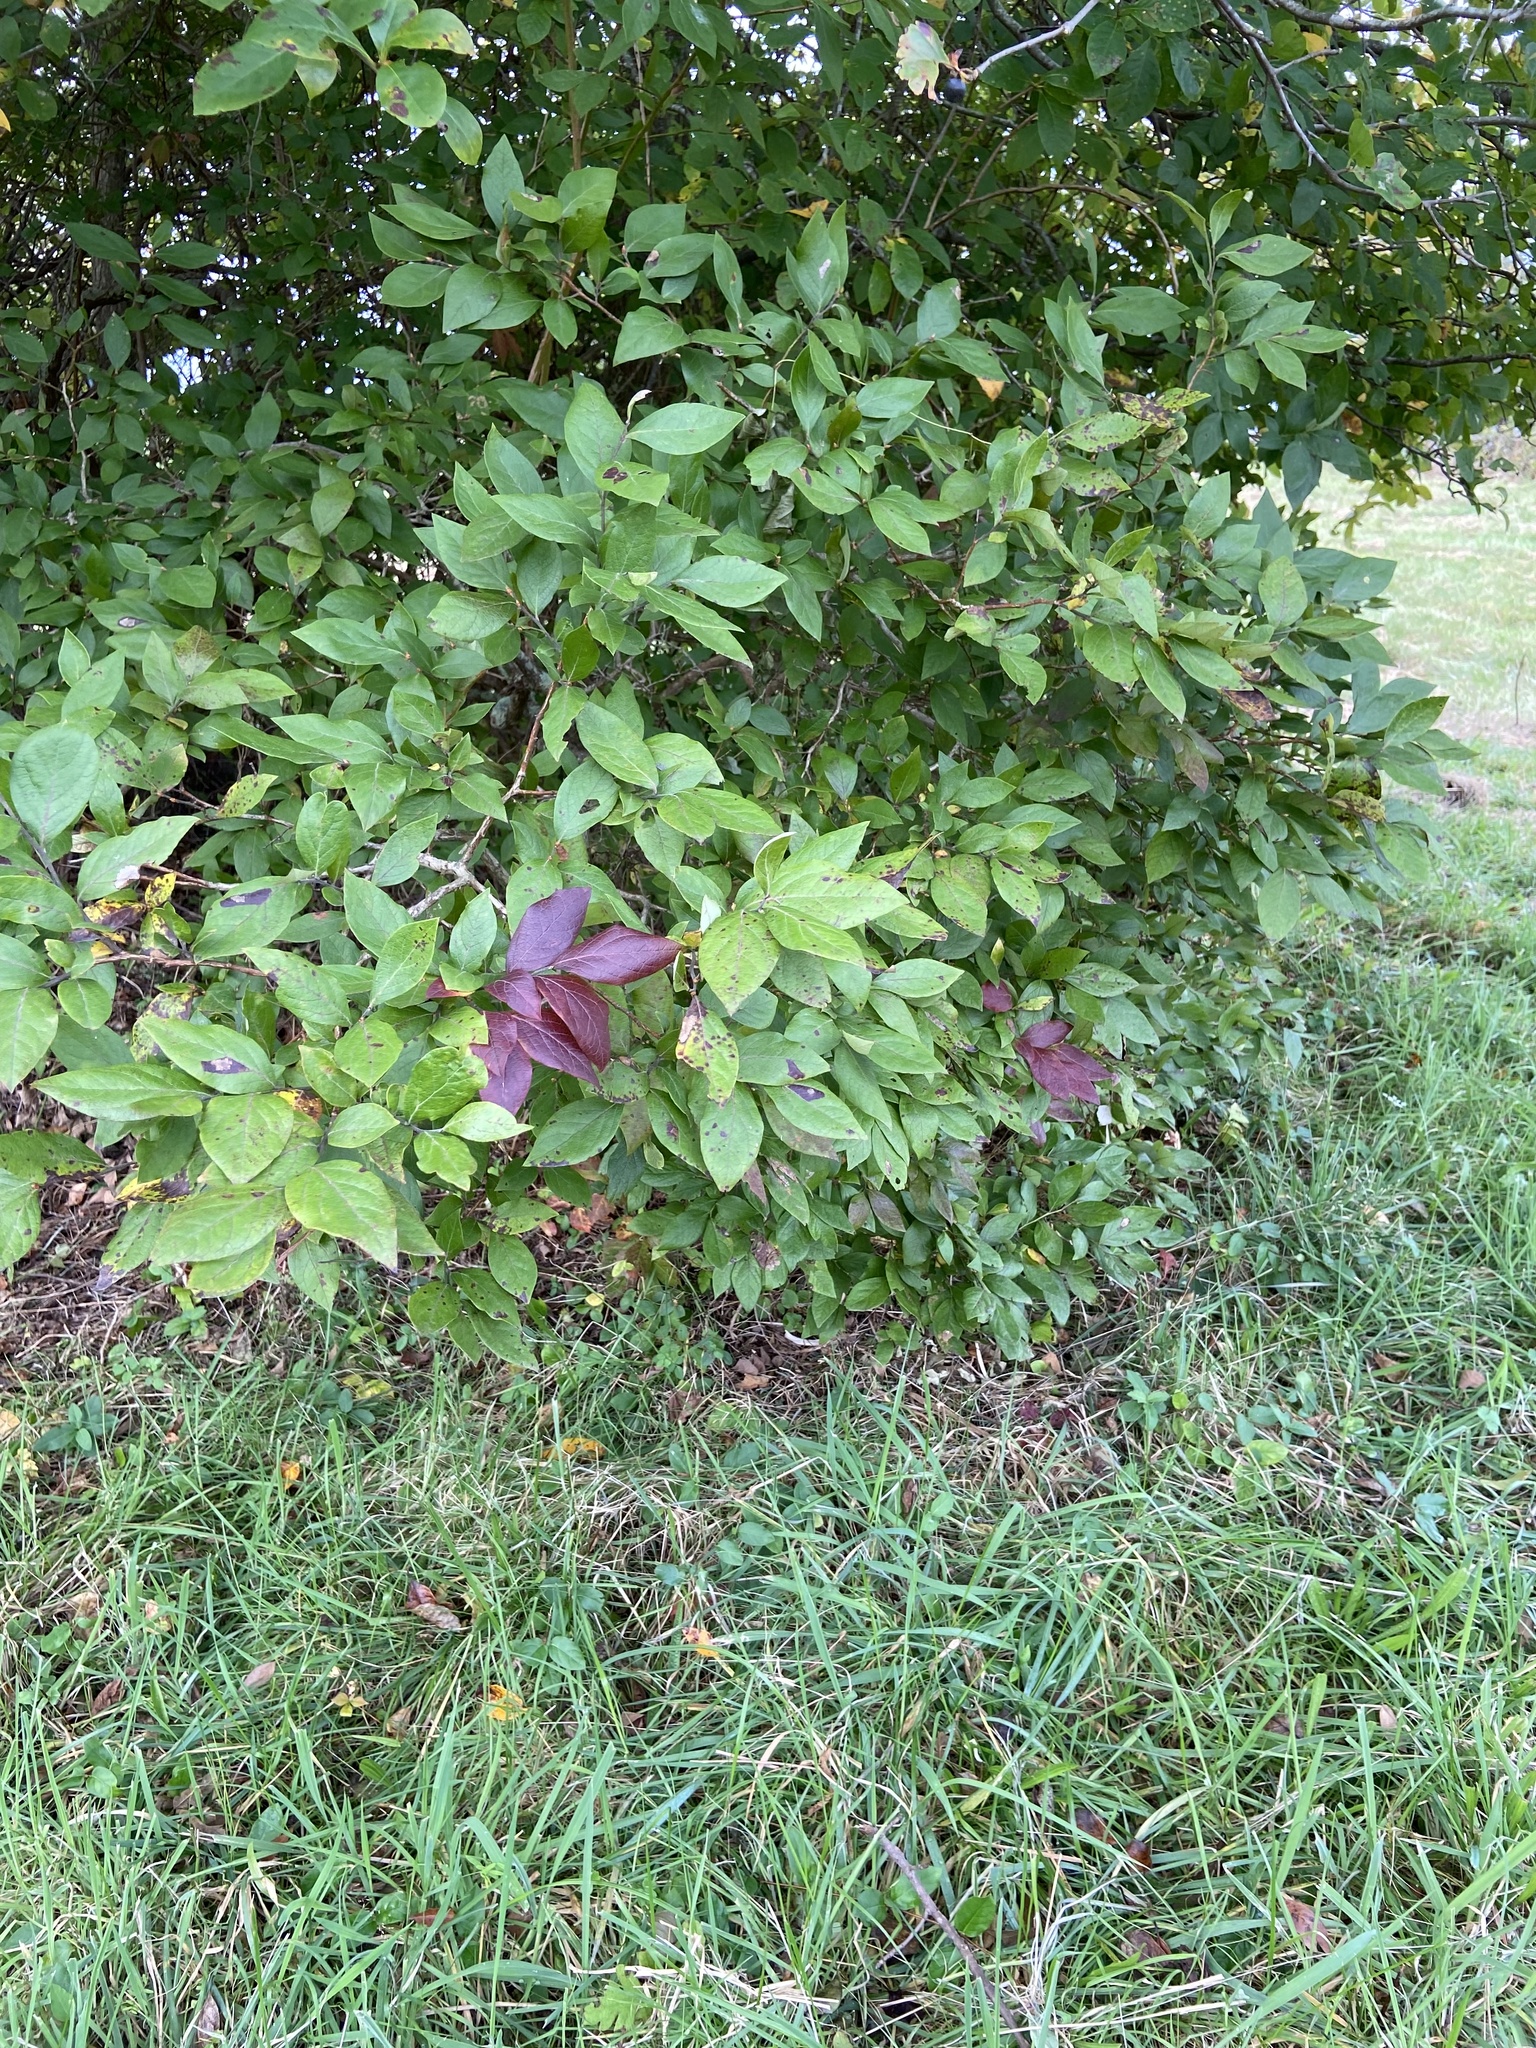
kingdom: Plantae
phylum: Tracheophyta
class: Magnoliopsida
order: Ericales
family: Ericaceae
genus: Vaccinium
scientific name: Vaccinium corymbosum
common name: Blueberry
